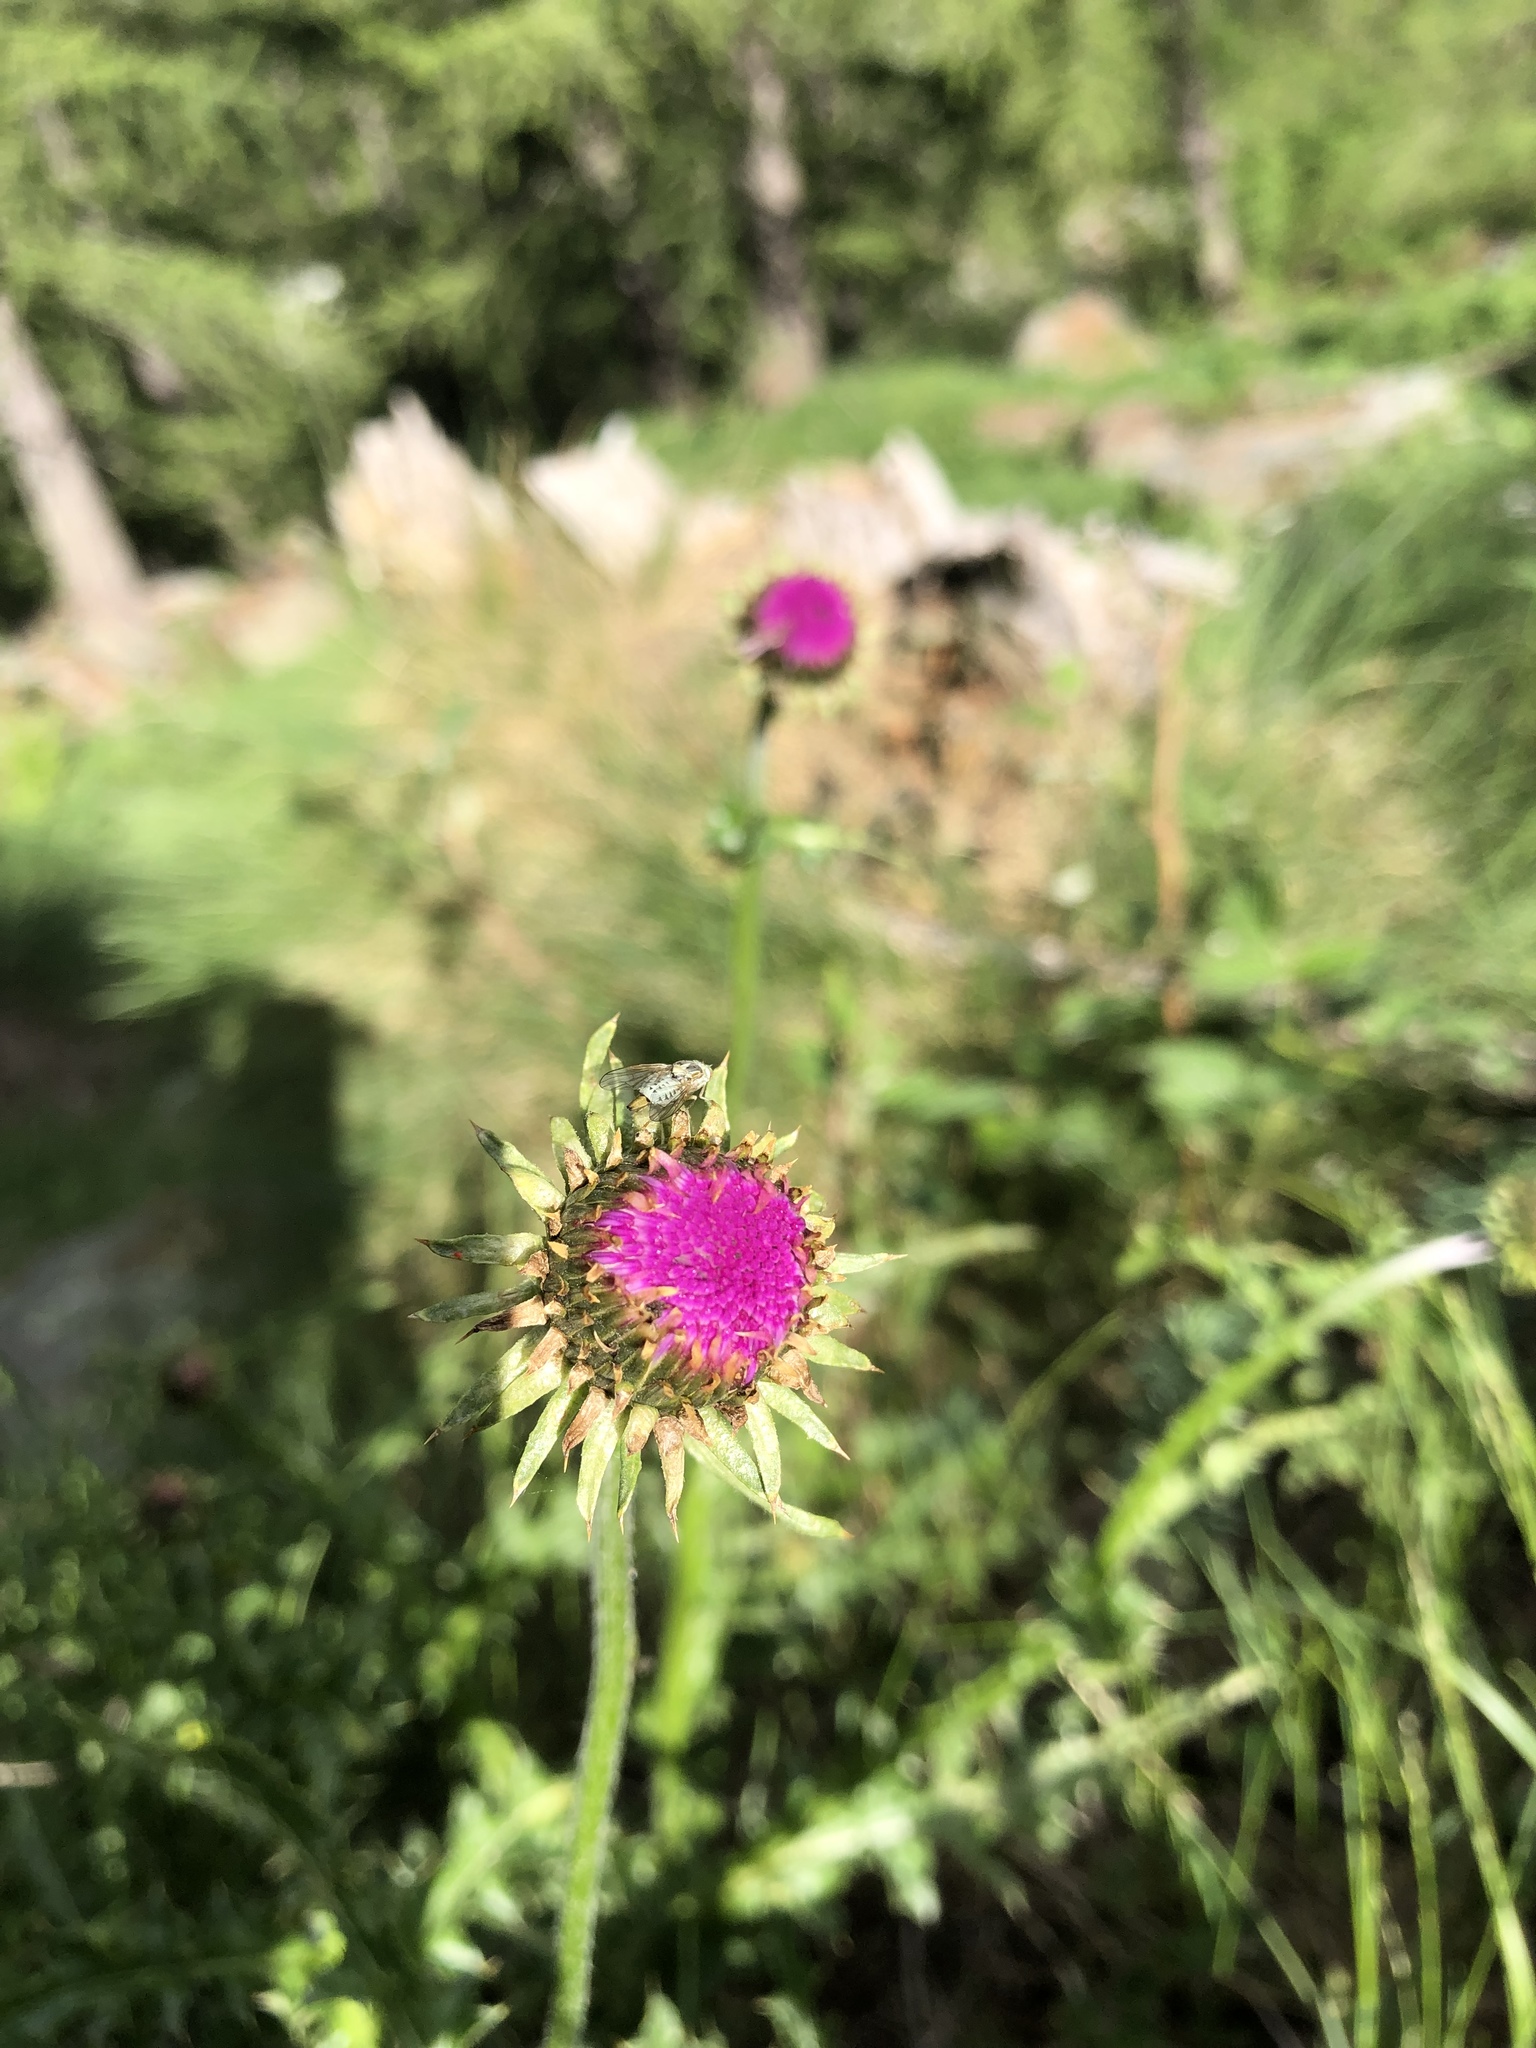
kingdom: Plantae
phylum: Tracheophyta
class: Magnoliopsida
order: Asterales
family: Asteraceae
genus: Carduus
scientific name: Carduus defloratus
